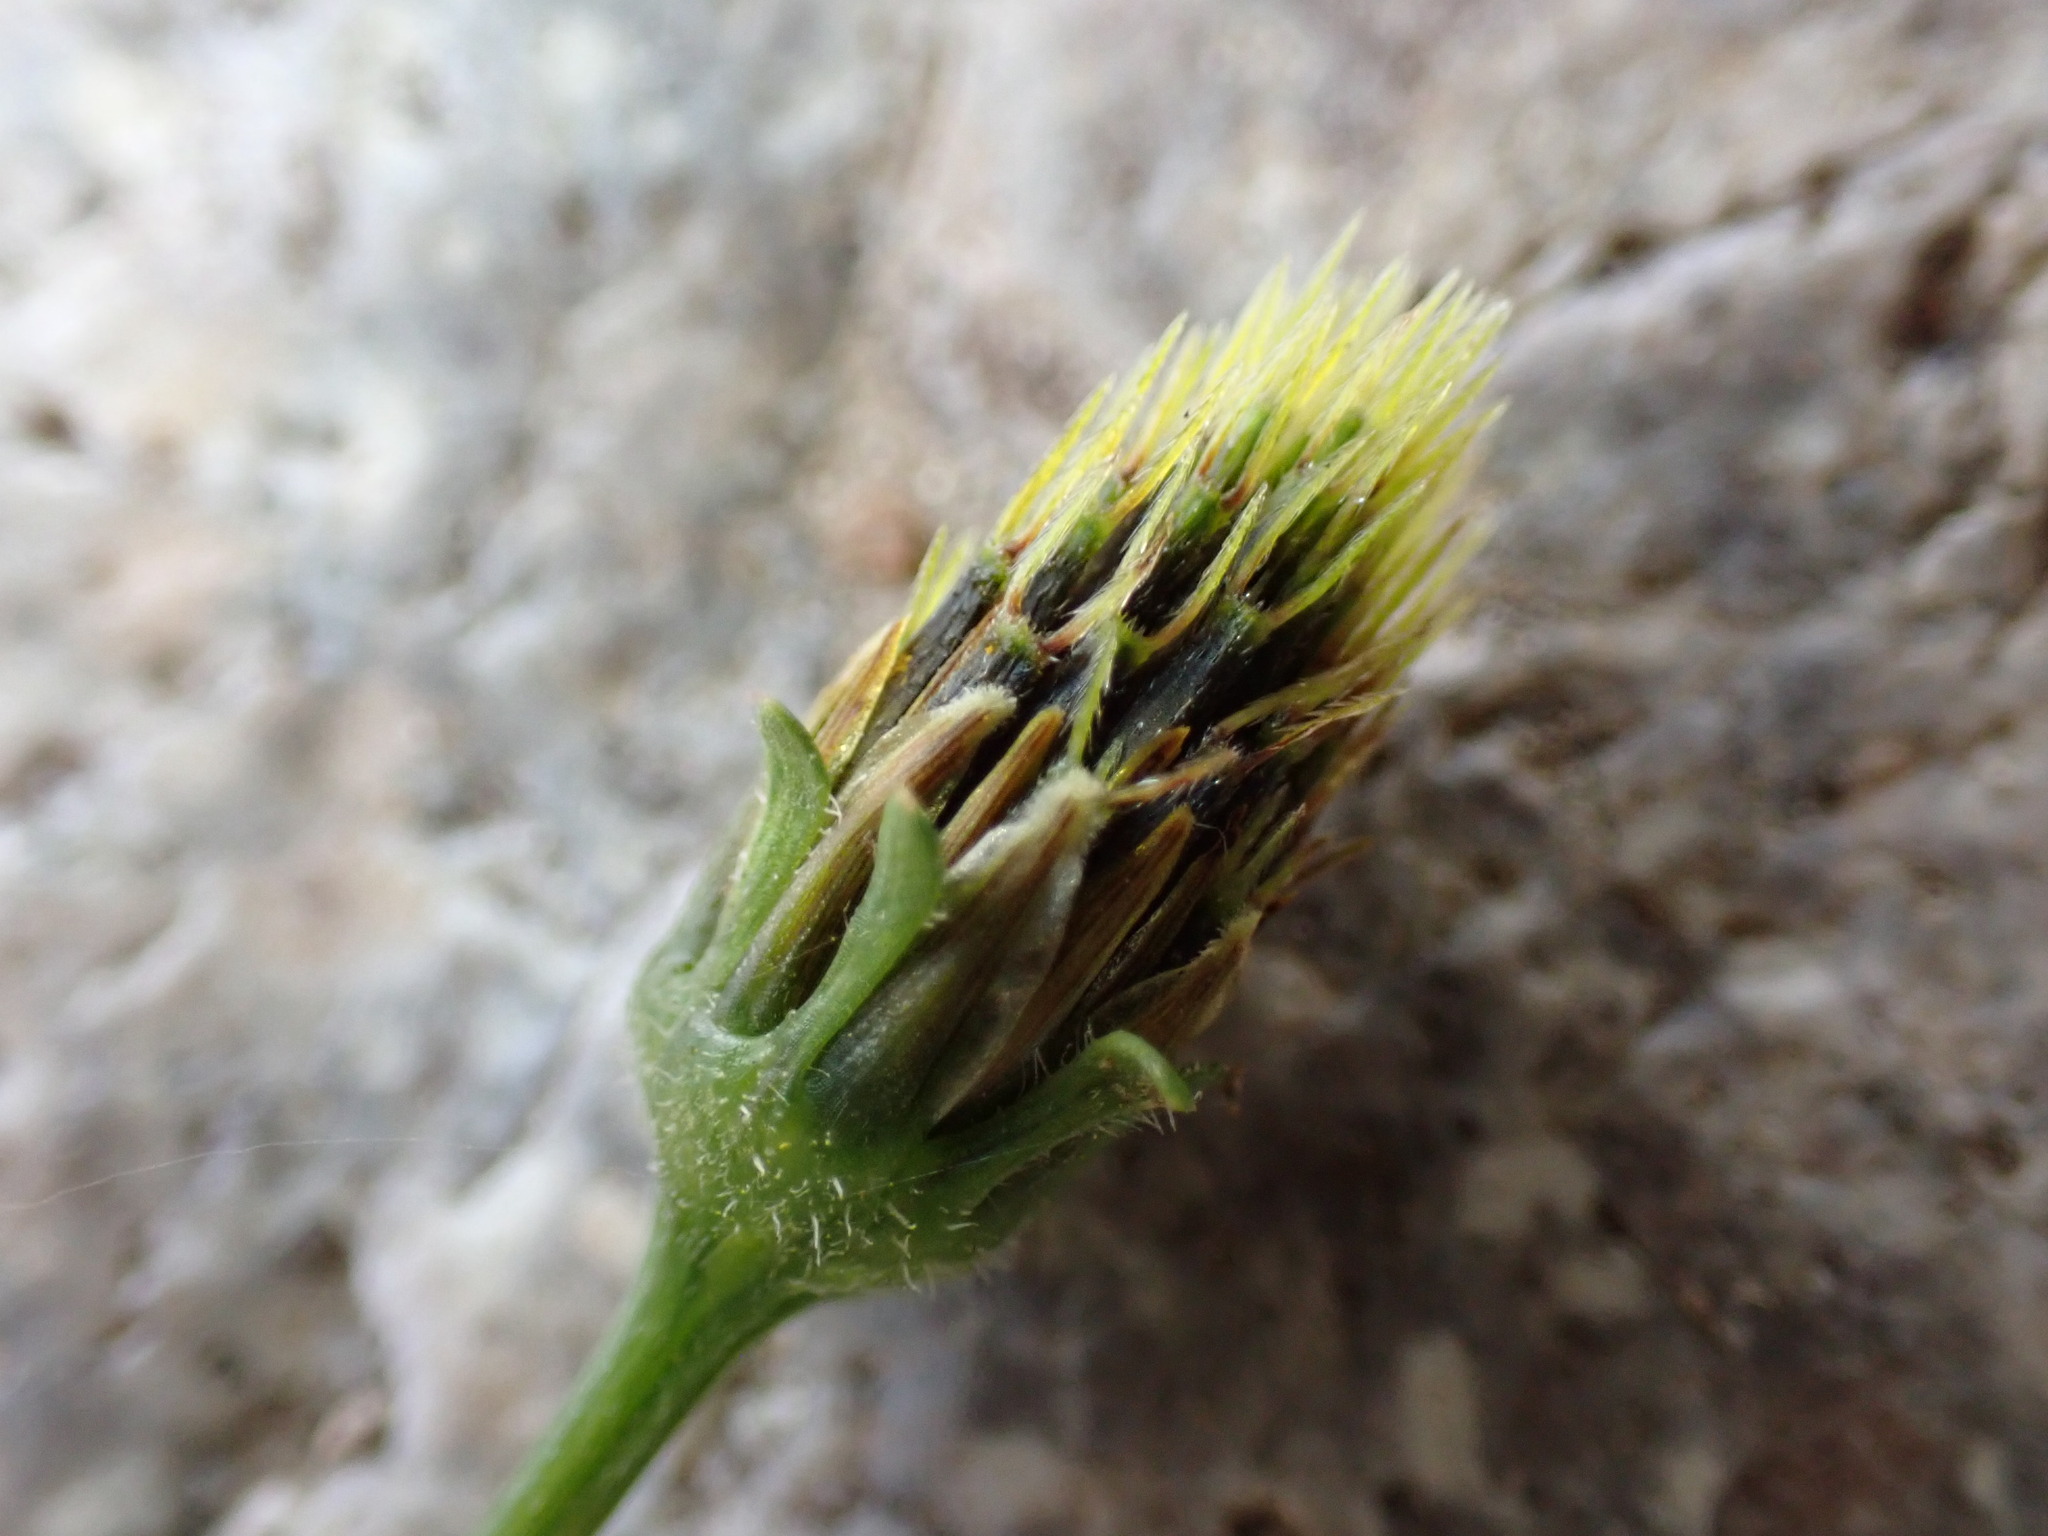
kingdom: Plantae
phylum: Tracheophyta
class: Magnoliopsida
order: Asterales
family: Asteraceae
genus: Bidens
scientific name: Bidens pilosa
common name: Black-jack
